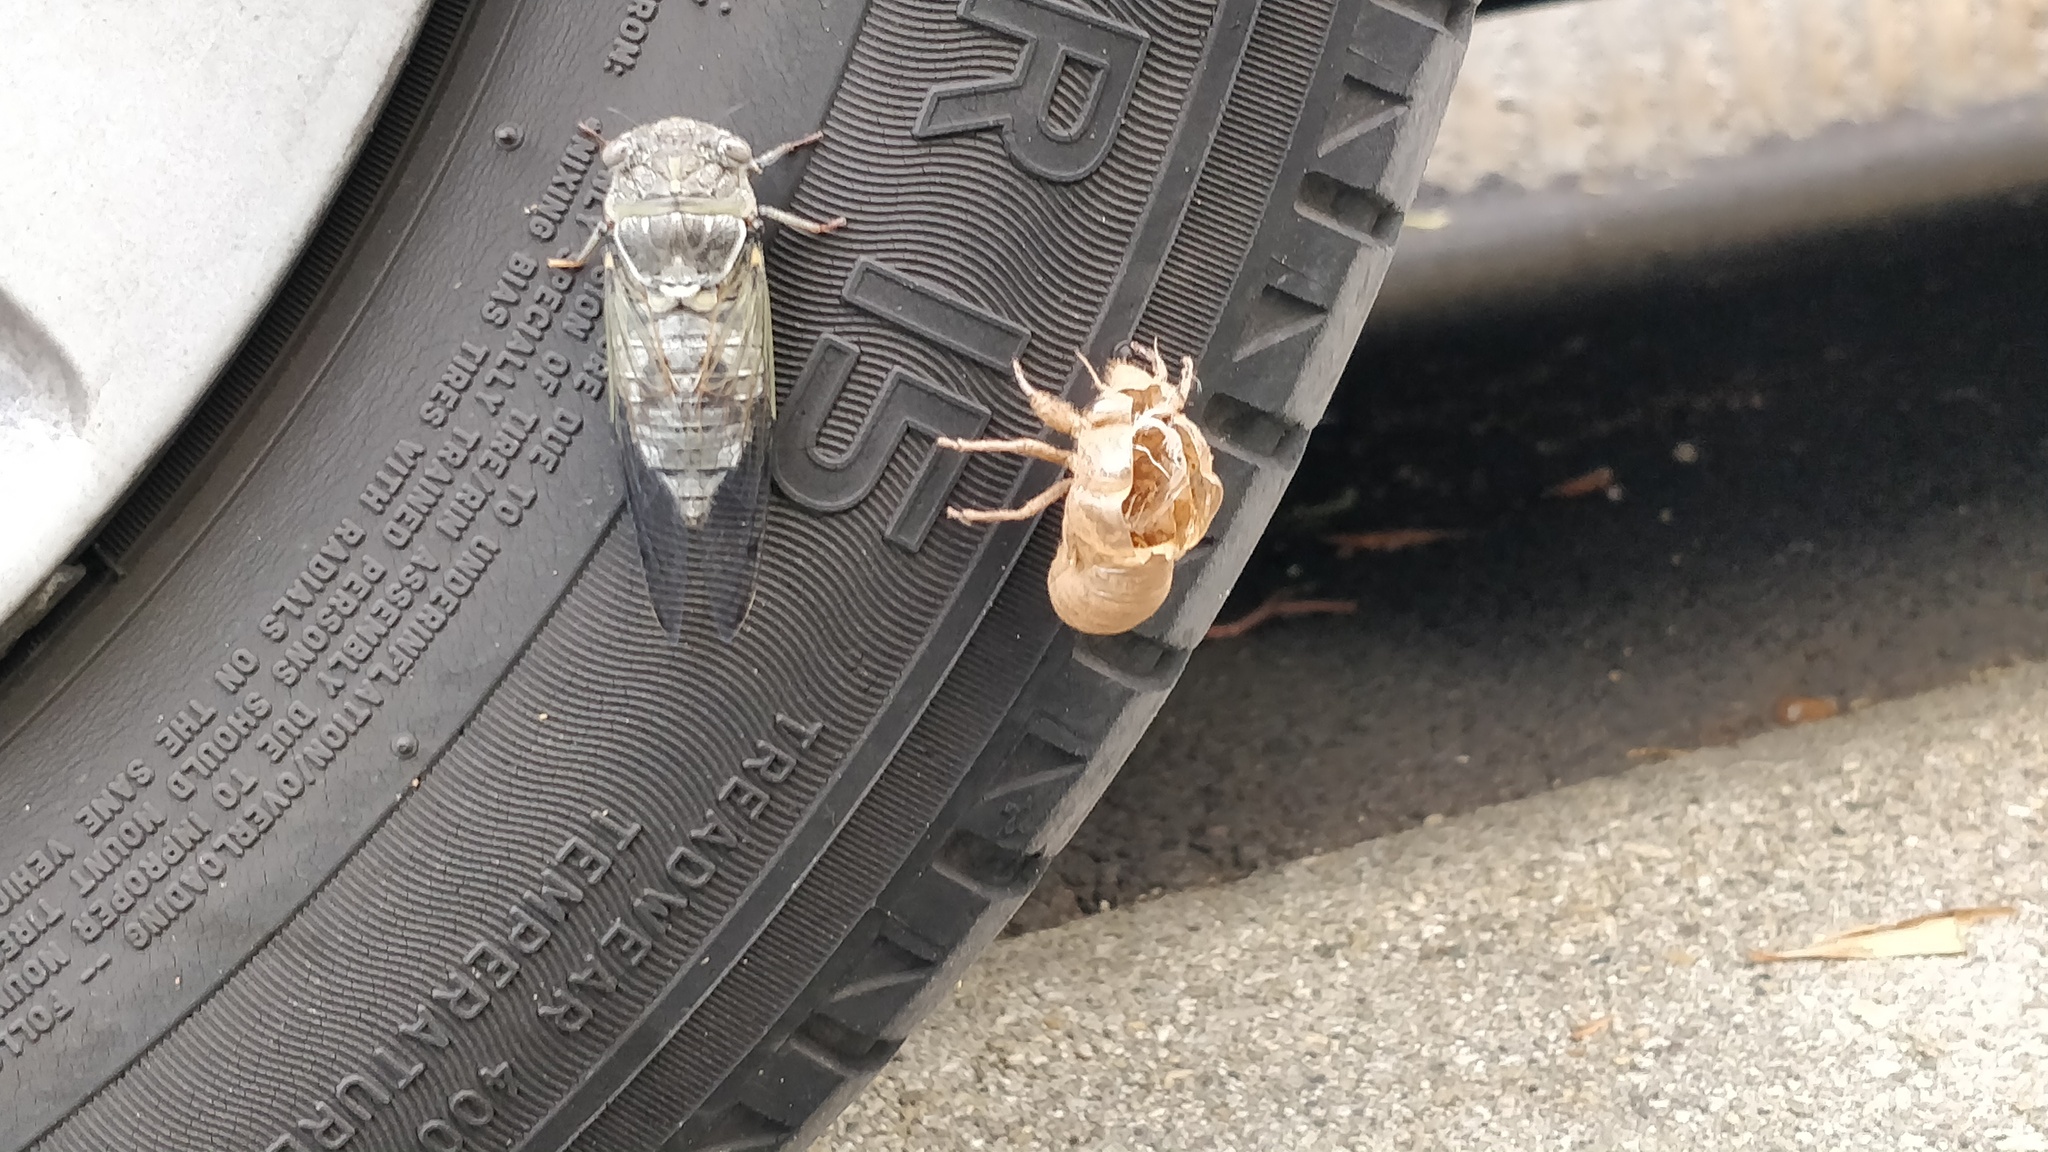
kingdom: Animalia
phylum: Arthropoda
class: Insecta
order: Hemiptera
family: Cicadidae
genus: Lyristes
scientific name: Lyristes plebejus
